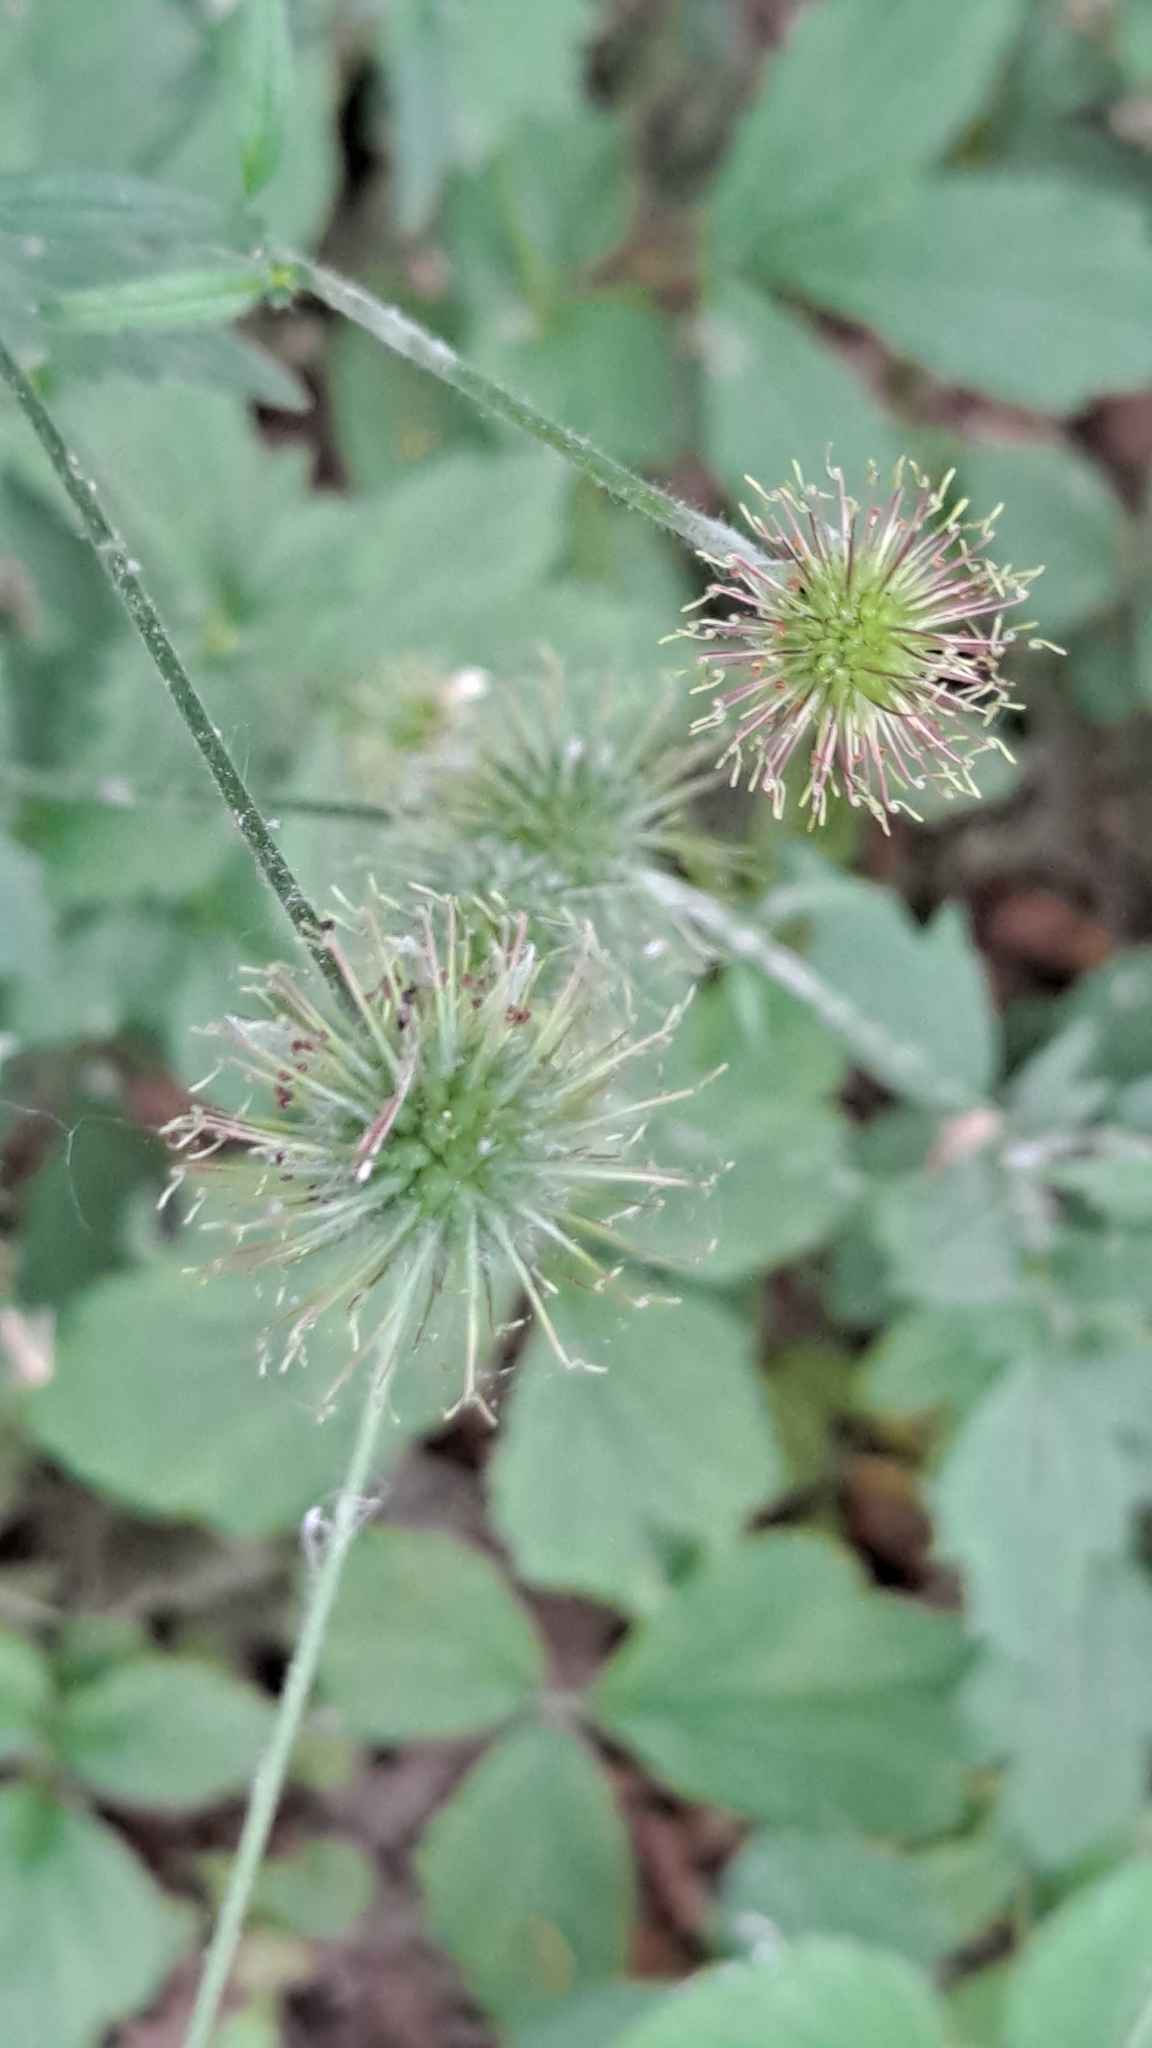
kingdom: Plantae
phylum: Tracheophyta
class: Magnoliopsida
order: Rosales
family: Rosaceae
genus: Geum
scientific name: Geum urbanum
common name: Wood avens
